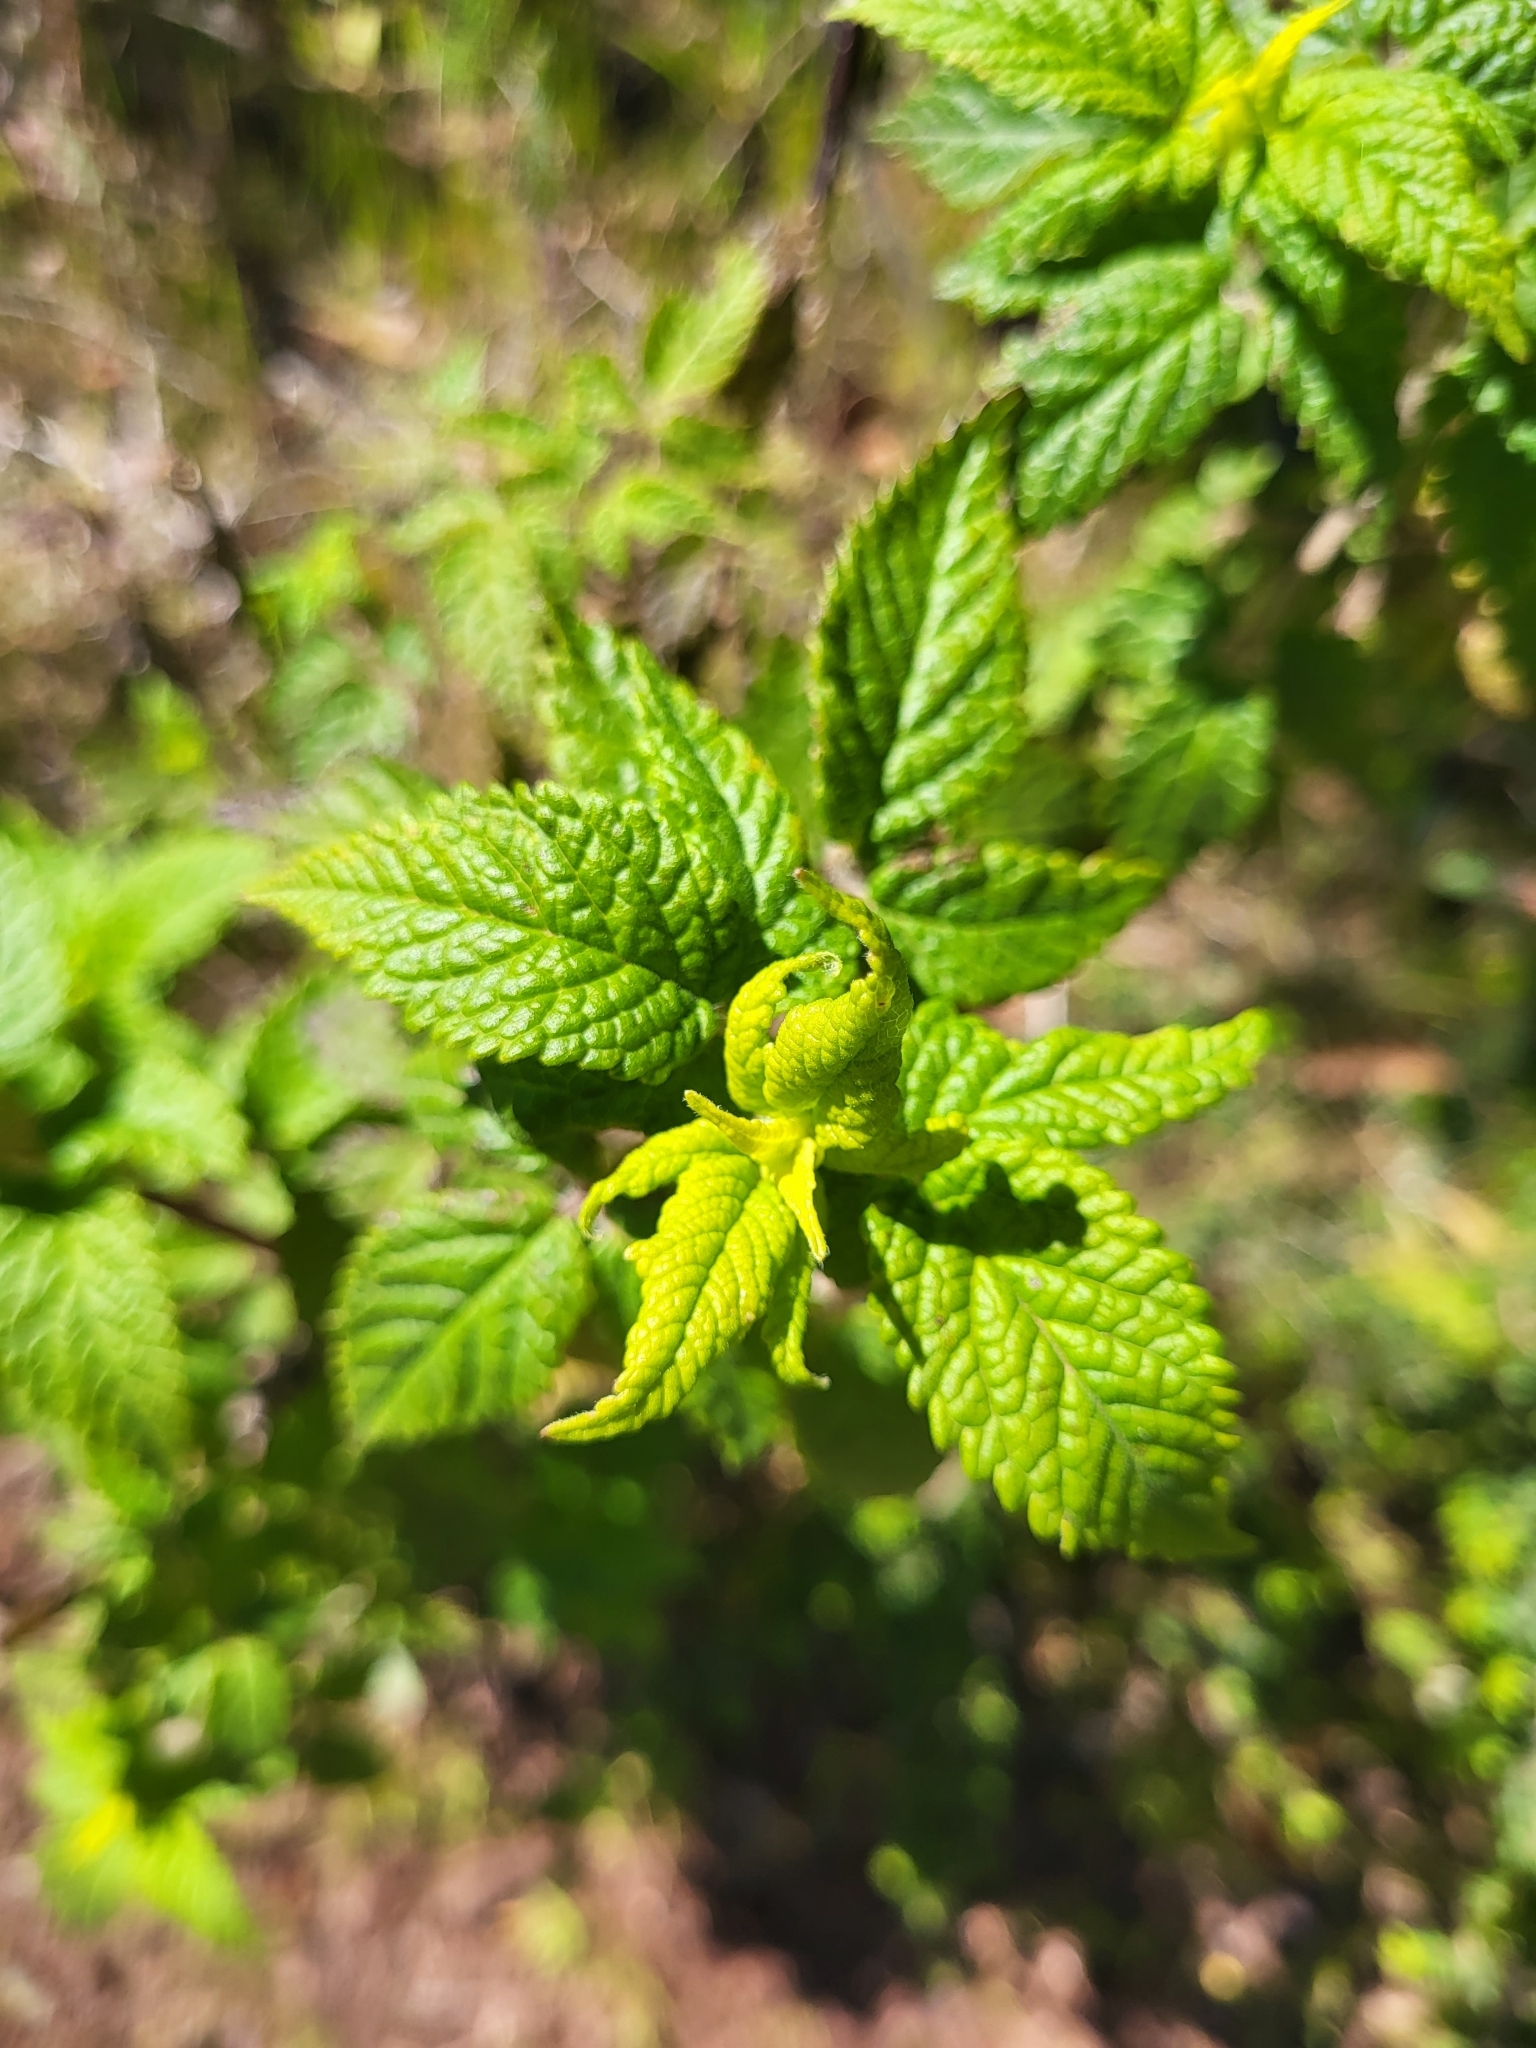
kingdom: Plantae
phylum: Tracheophyta
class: Magnoliopsida
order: Lamiales
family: Lamiaceae
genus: Cedronella
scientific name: Cedronella canariensis
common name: Canary islands balm
